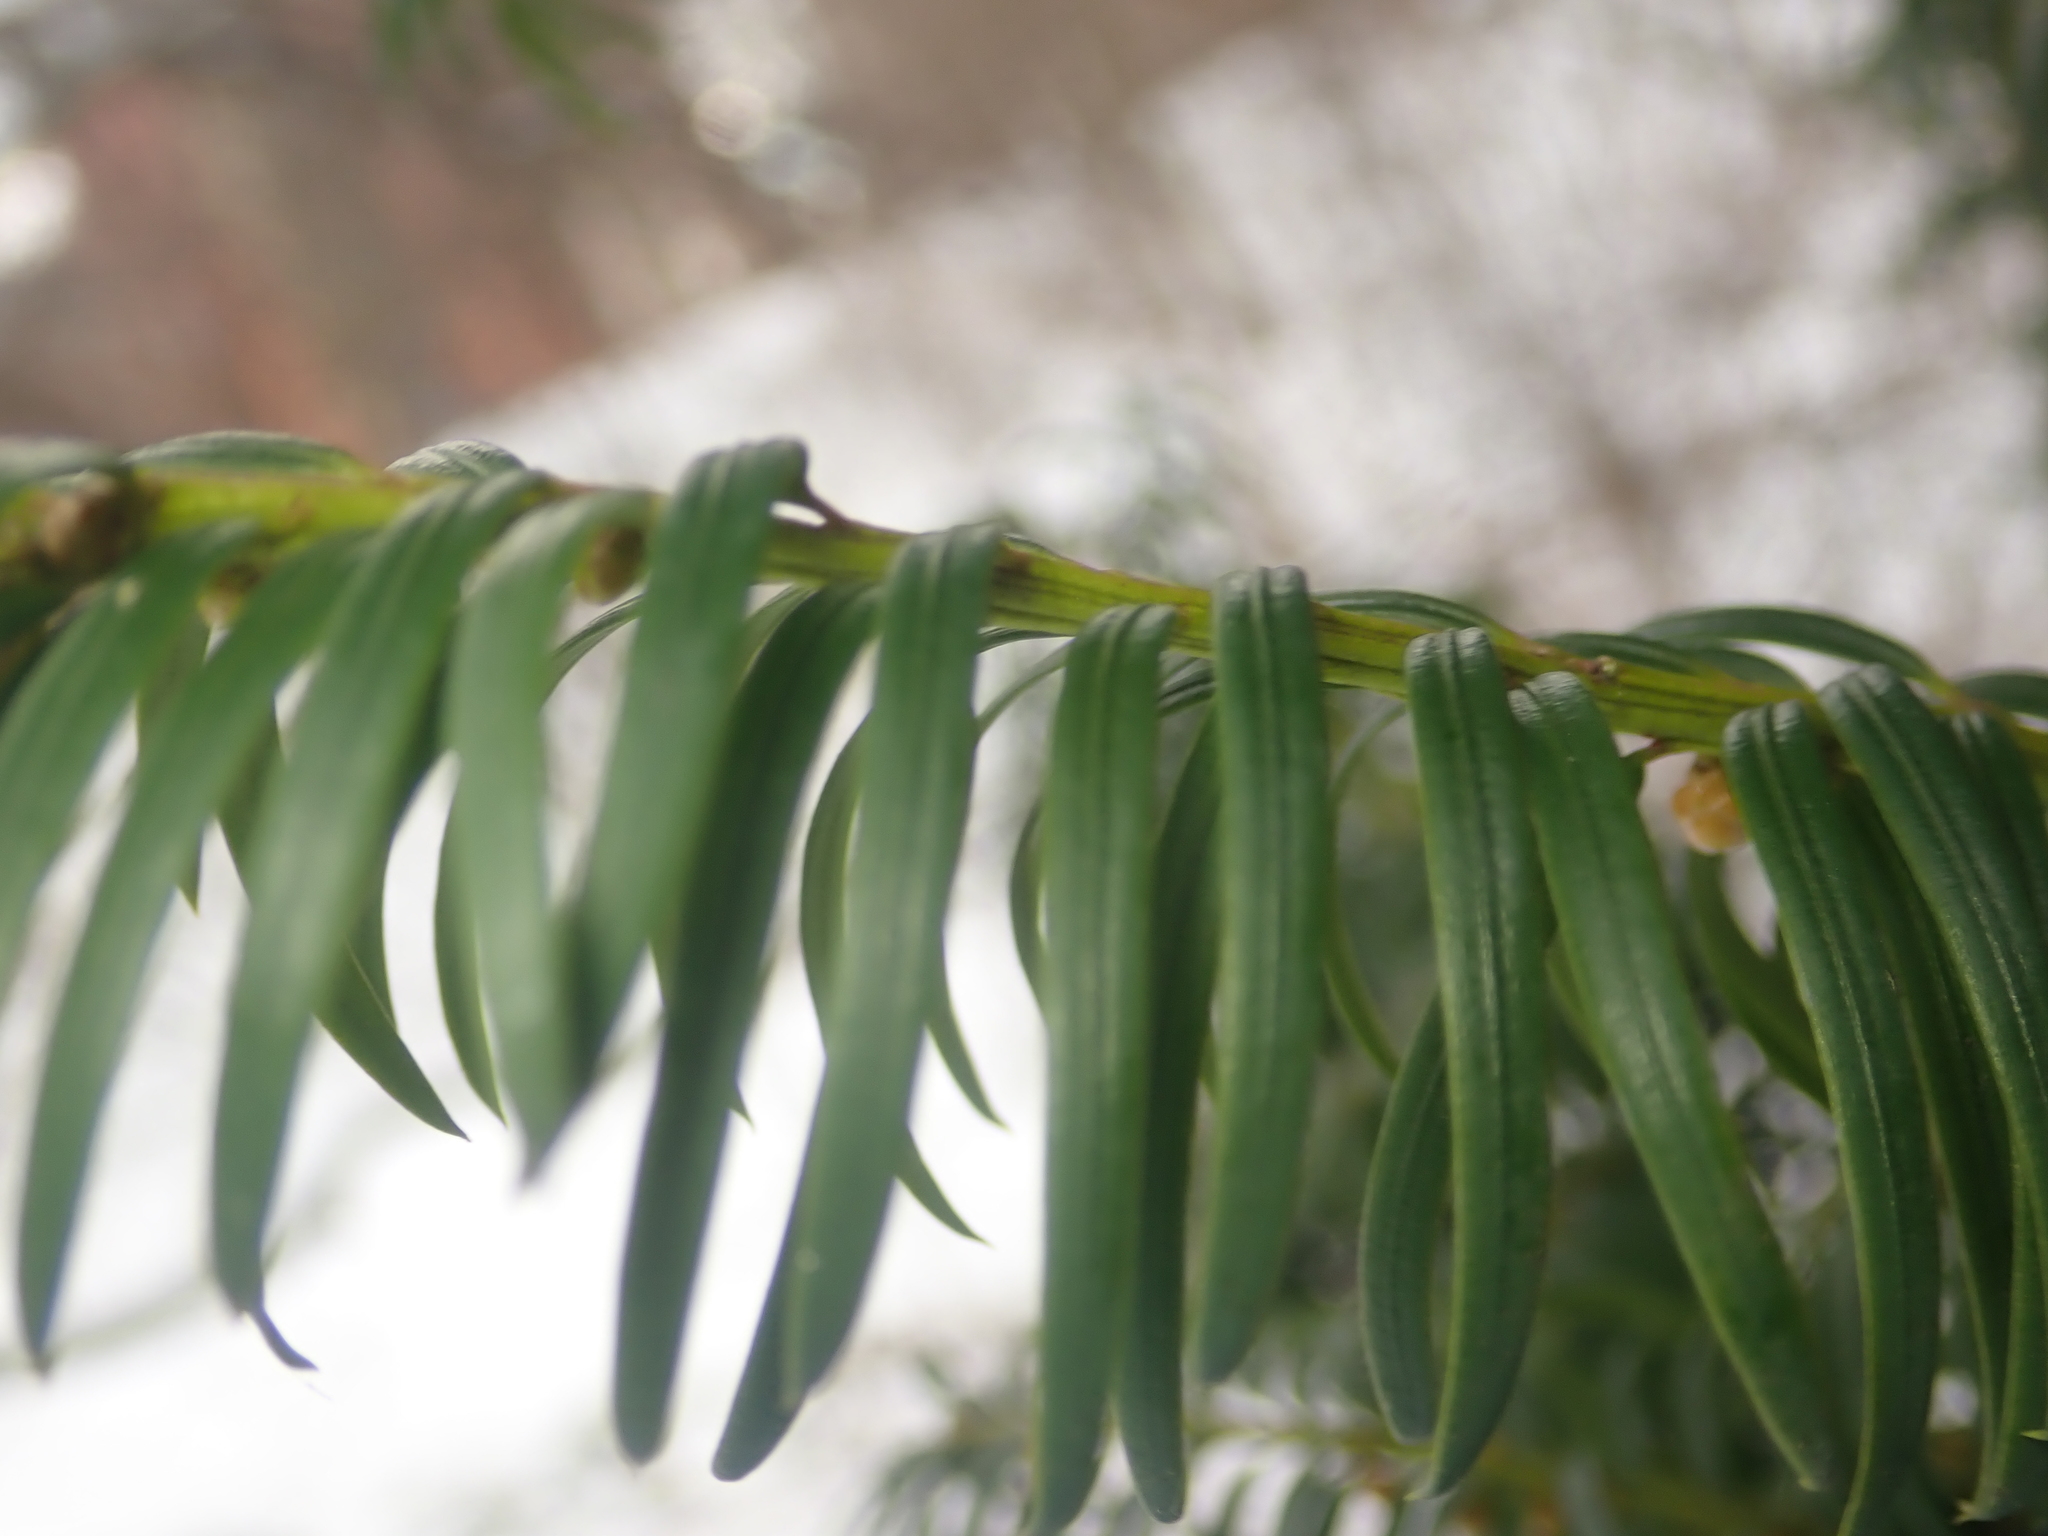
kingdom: Plantae
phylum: Tracheophyta
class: Pinopsida
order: Pinales
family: Taxaceae
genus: Taxus
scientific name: Taxus baccata
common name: Yew
